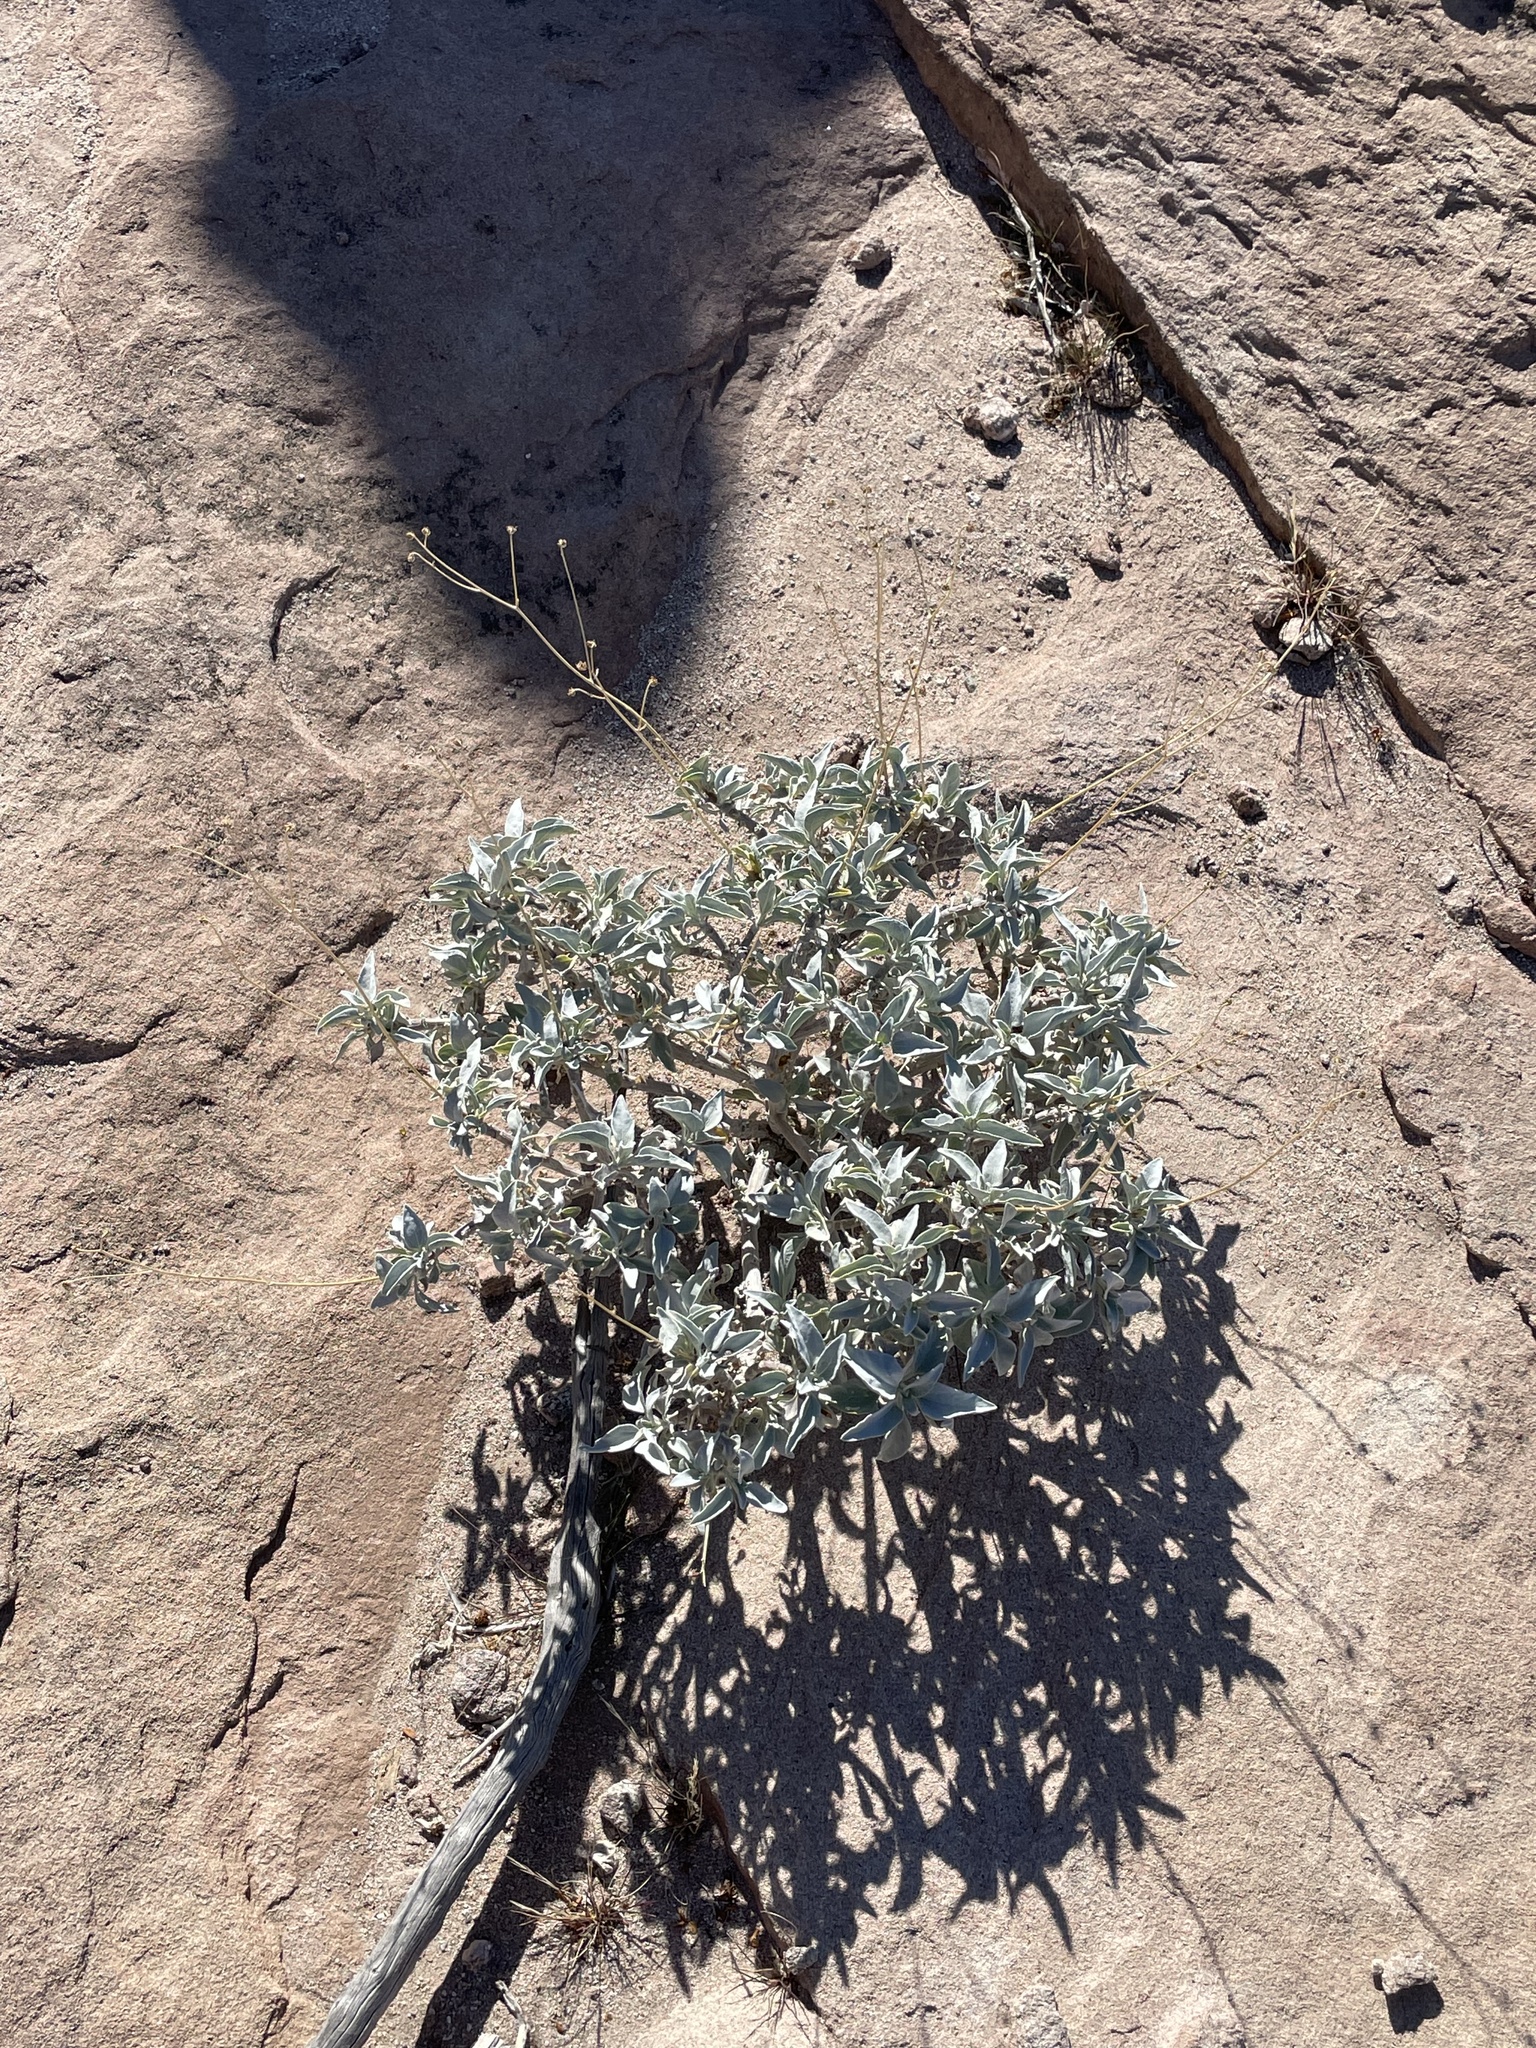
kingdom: Plantae
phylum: Tracheophyta
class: Magnoliopsida
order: Asterales
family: Asteraceae
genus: Encelia
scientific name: Encelia farinosa
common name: Brittlebush
